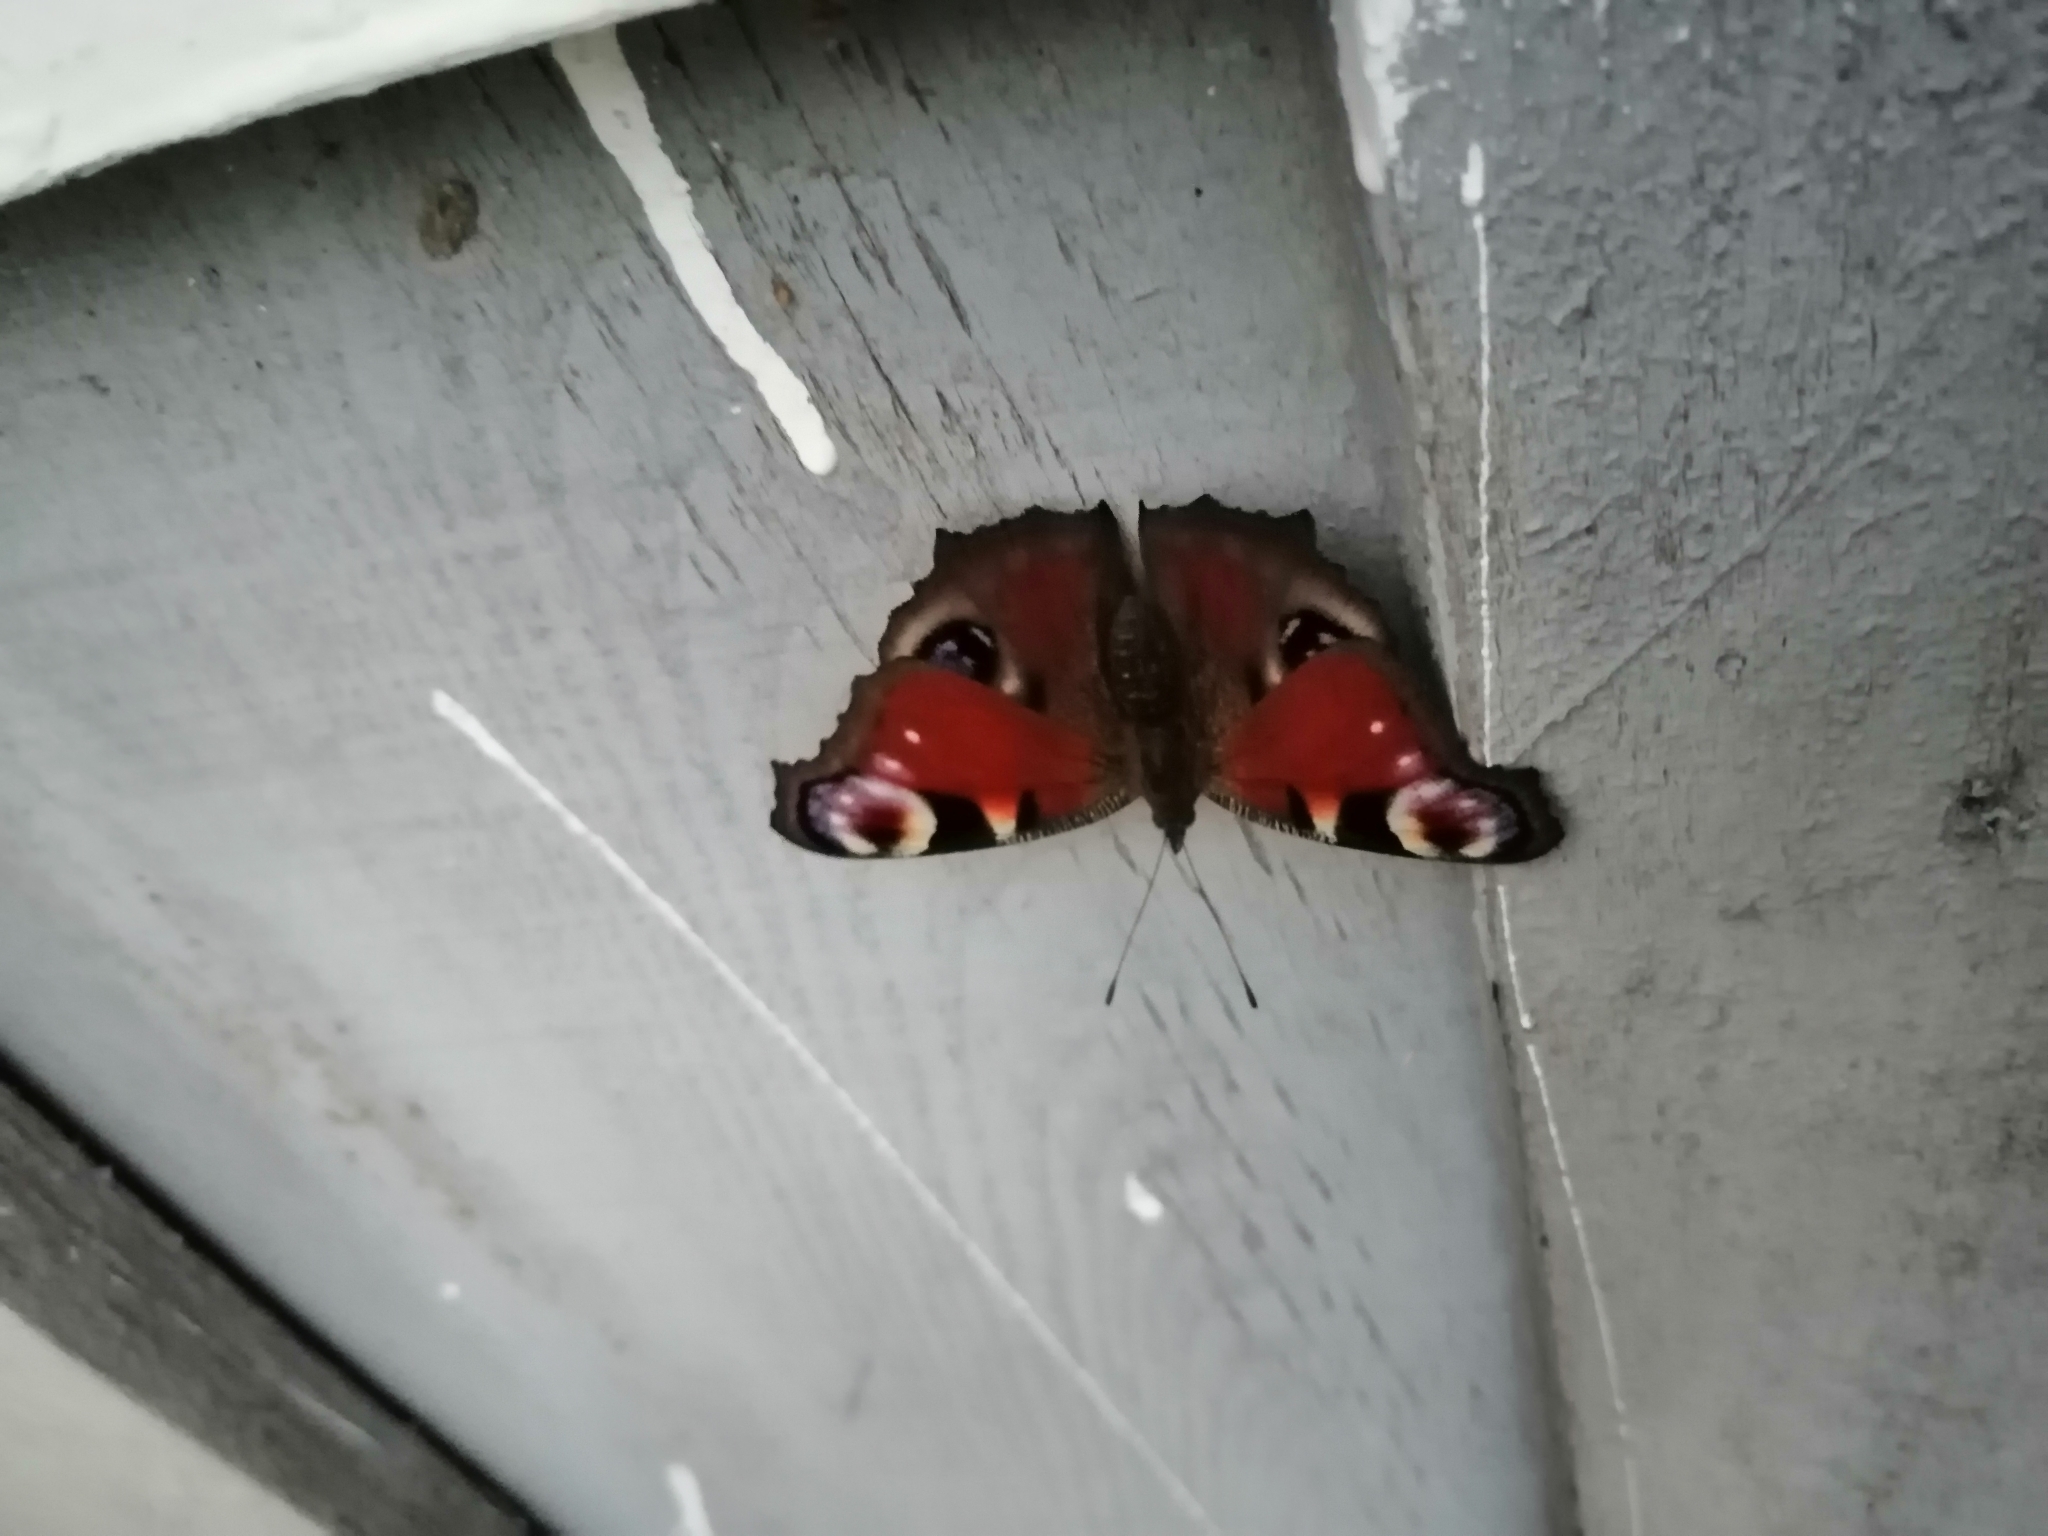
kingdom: Animalia
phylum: Arthropoda
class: Insecta
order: Lepidoptera
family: Nymphalidae
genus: Aglais
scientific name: Aglais io
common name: Peacock
